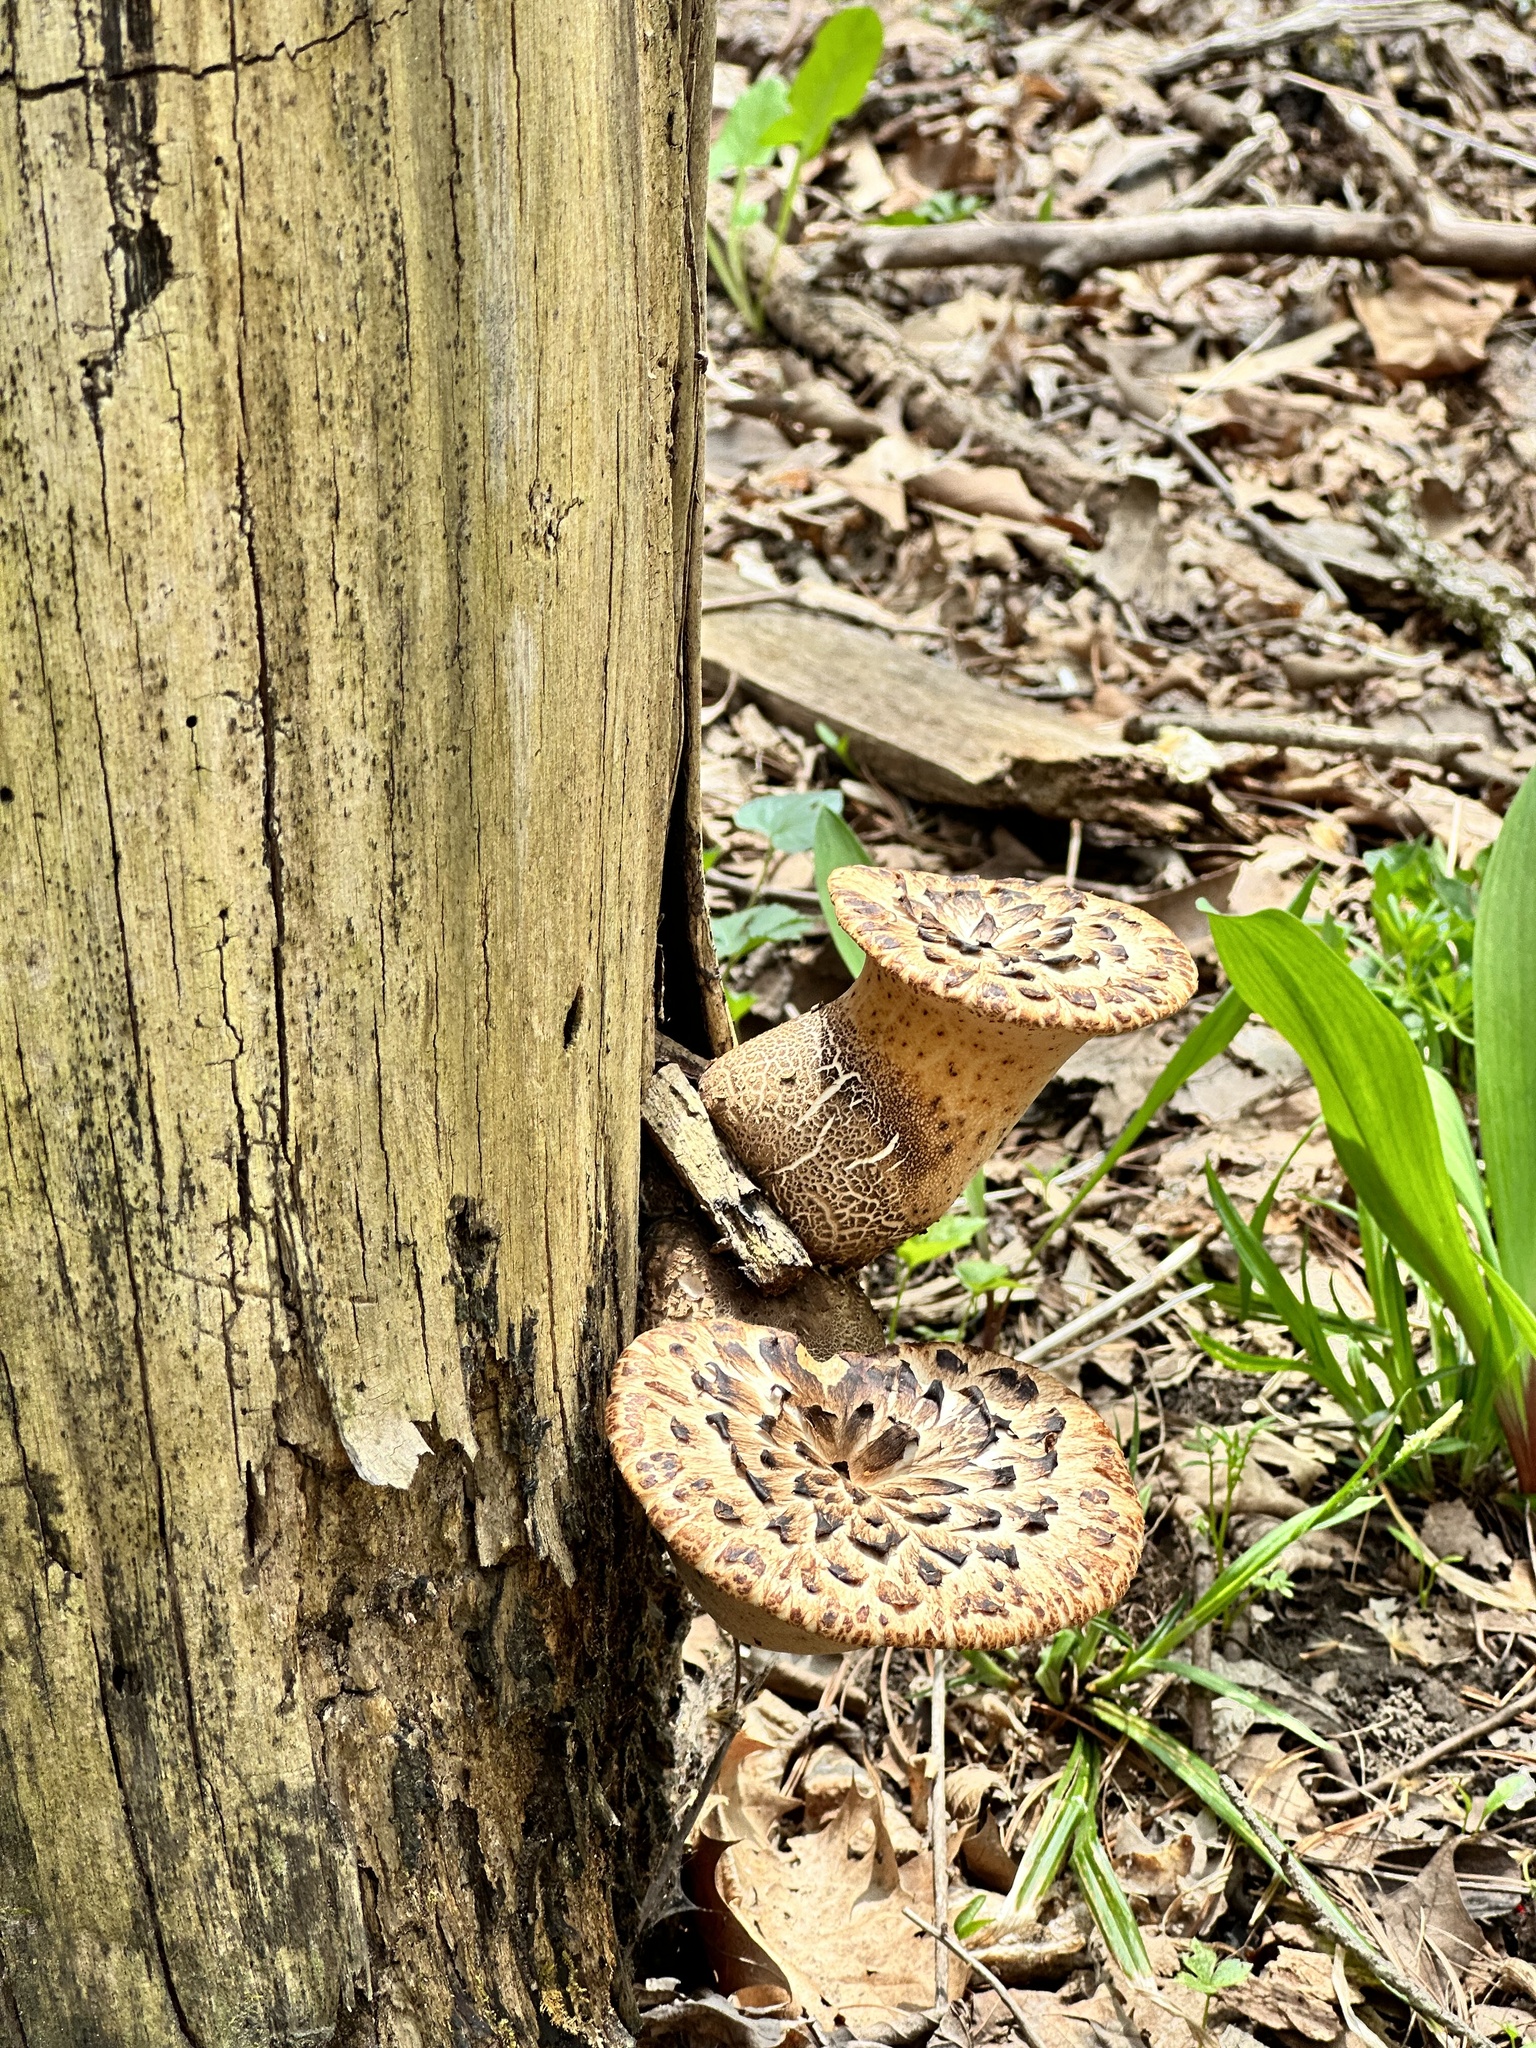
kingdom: Fungi
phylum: Basidiomycota
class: Agaricomycetes
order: Polyporales
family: Polyporaceae
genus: Cerioporus
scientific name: Cerioporus squamosus
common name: Dryad's saddle
